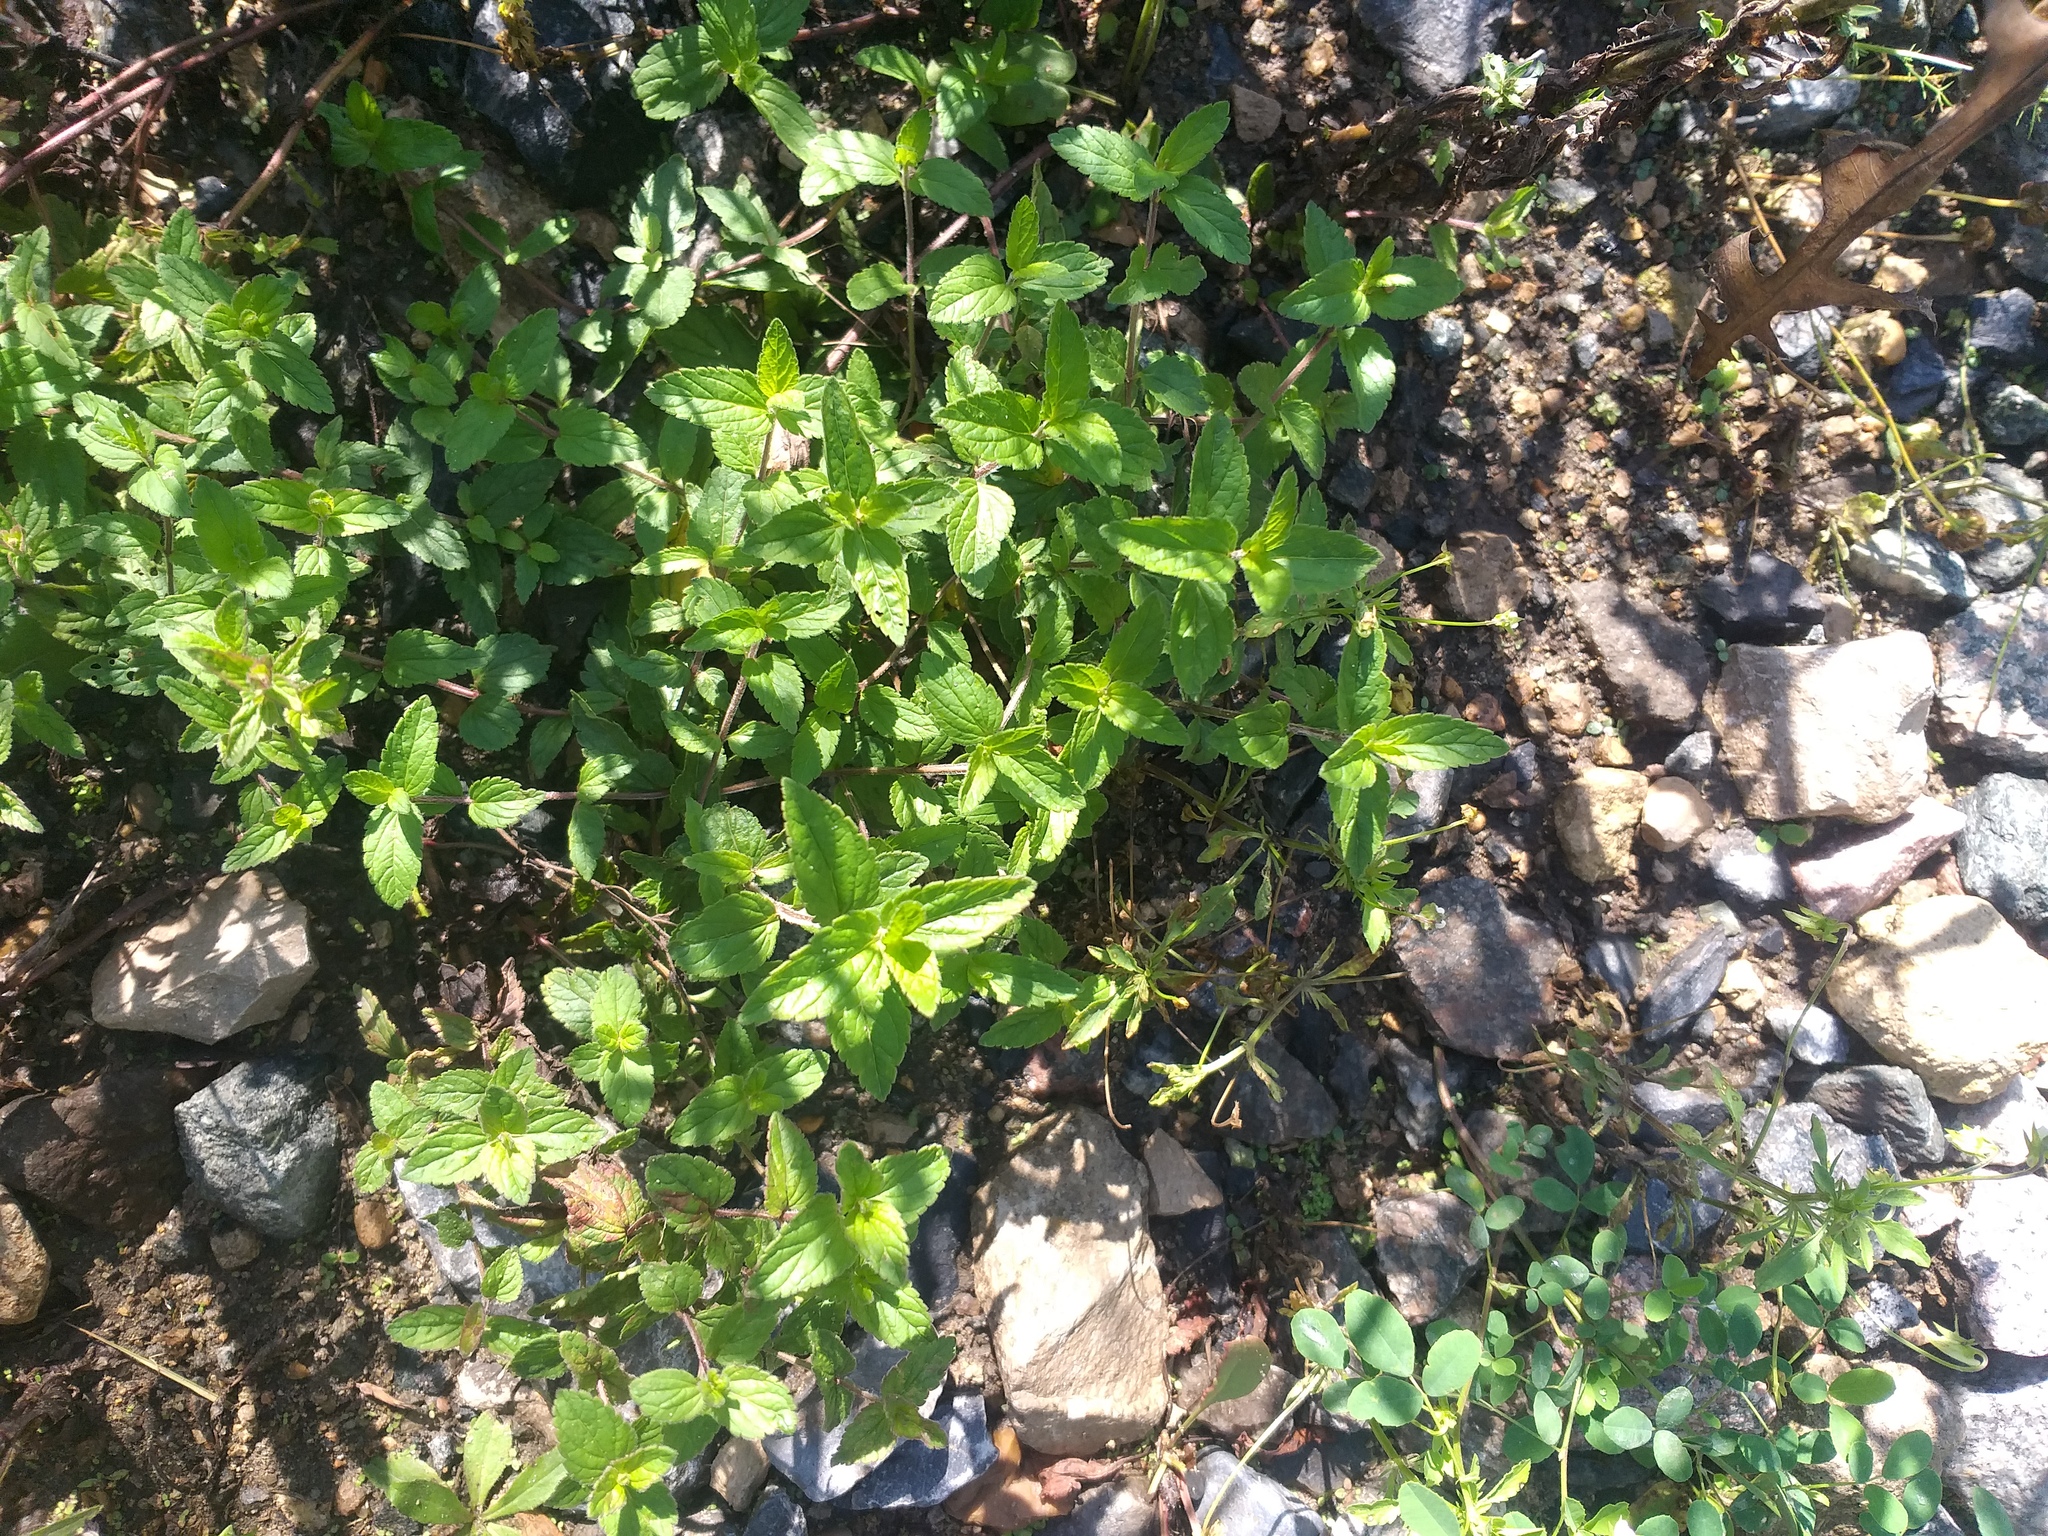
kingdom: Plantae
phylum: Tracheophyta
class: Magnoliopsida
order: Lamiales
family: Plantaginaceae
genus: Veronica
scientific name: Veronica chamaedrys
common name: Germander speedwell
